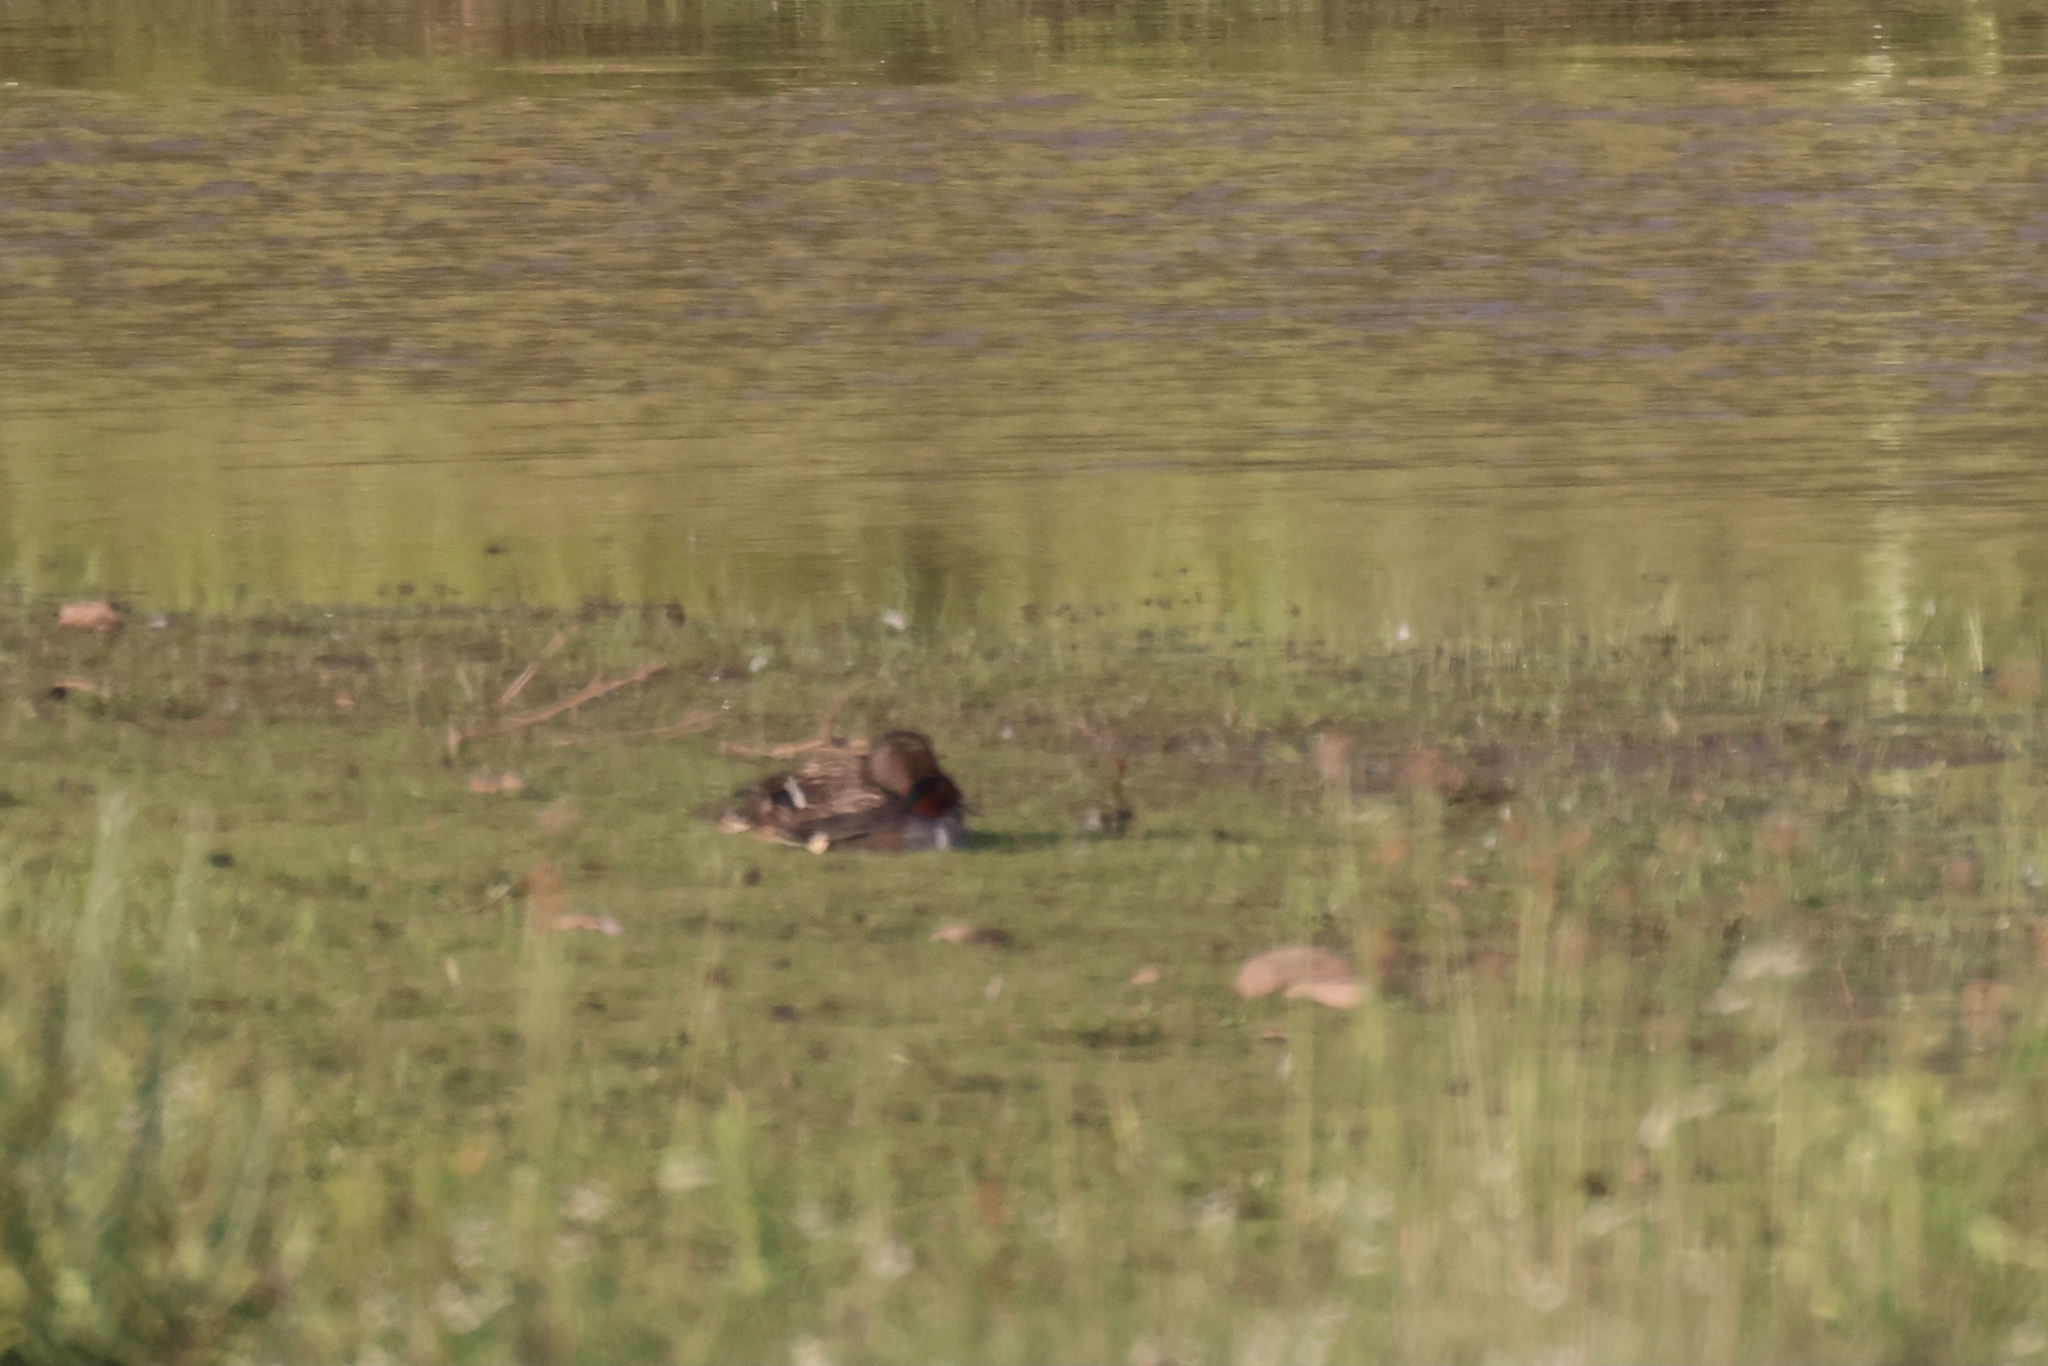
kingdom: Animalia
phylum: Chordata
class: Aves
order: Anseriformes
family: Anatidae
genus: Anas
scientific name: Anas carolinensis
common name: Green-winged teal
